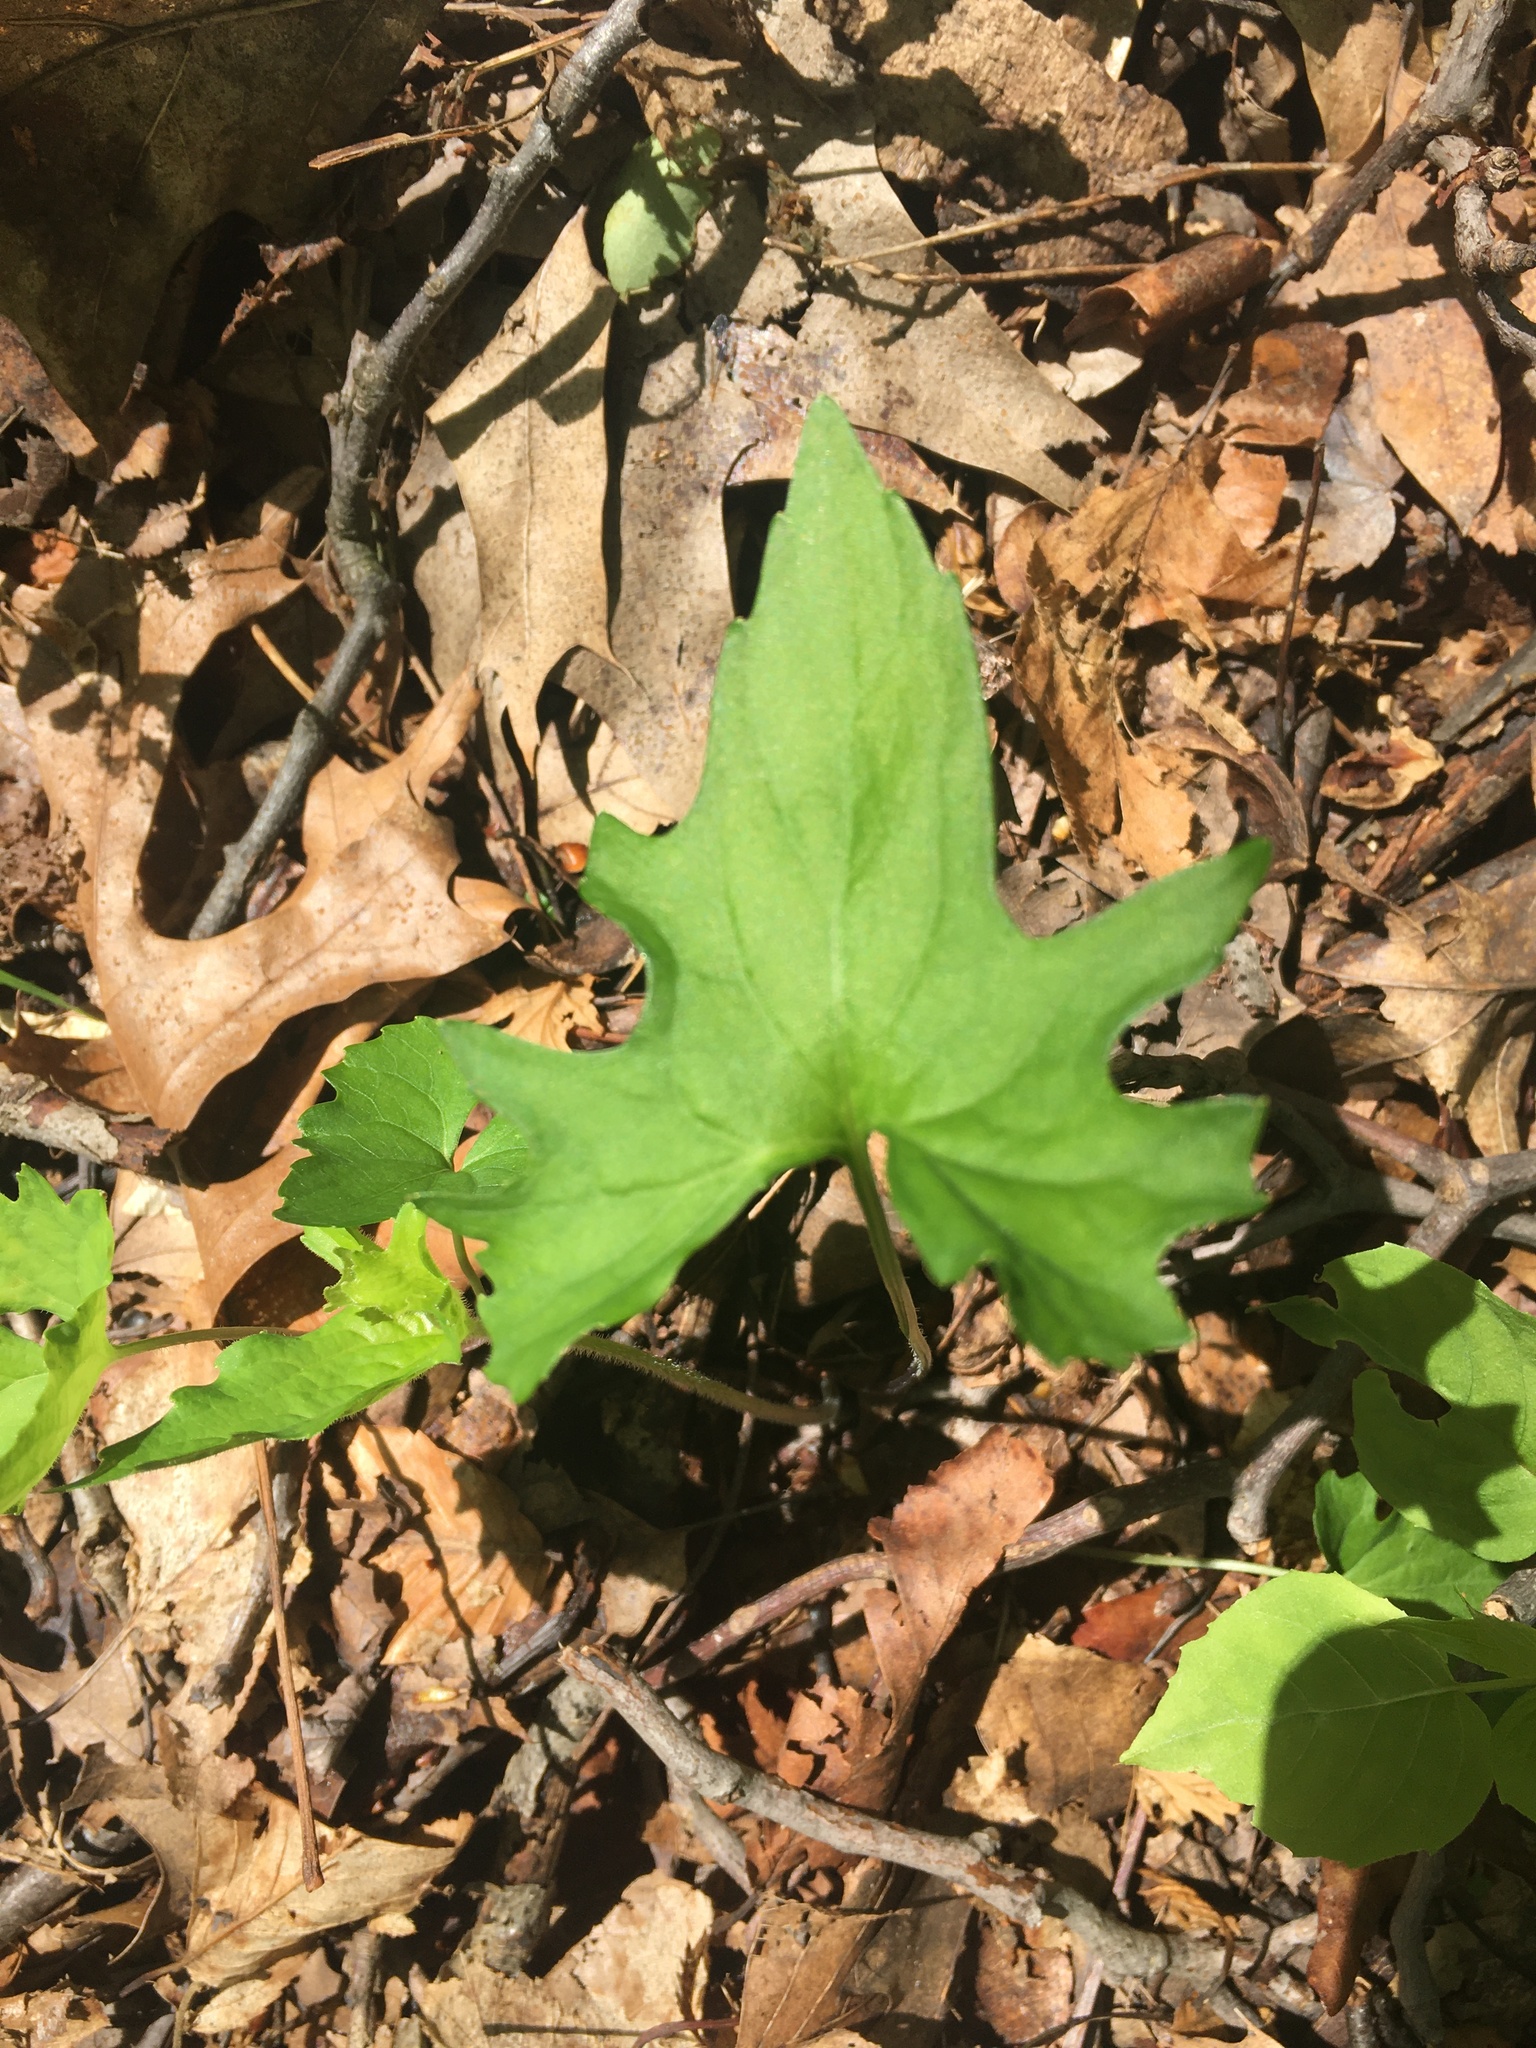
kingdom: Plantae
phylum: Tracheophyta
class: Magnoliopsida
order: Malpighiales
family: Violaceae
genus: Viola
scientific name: Viola palmata
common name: Early blue violet
